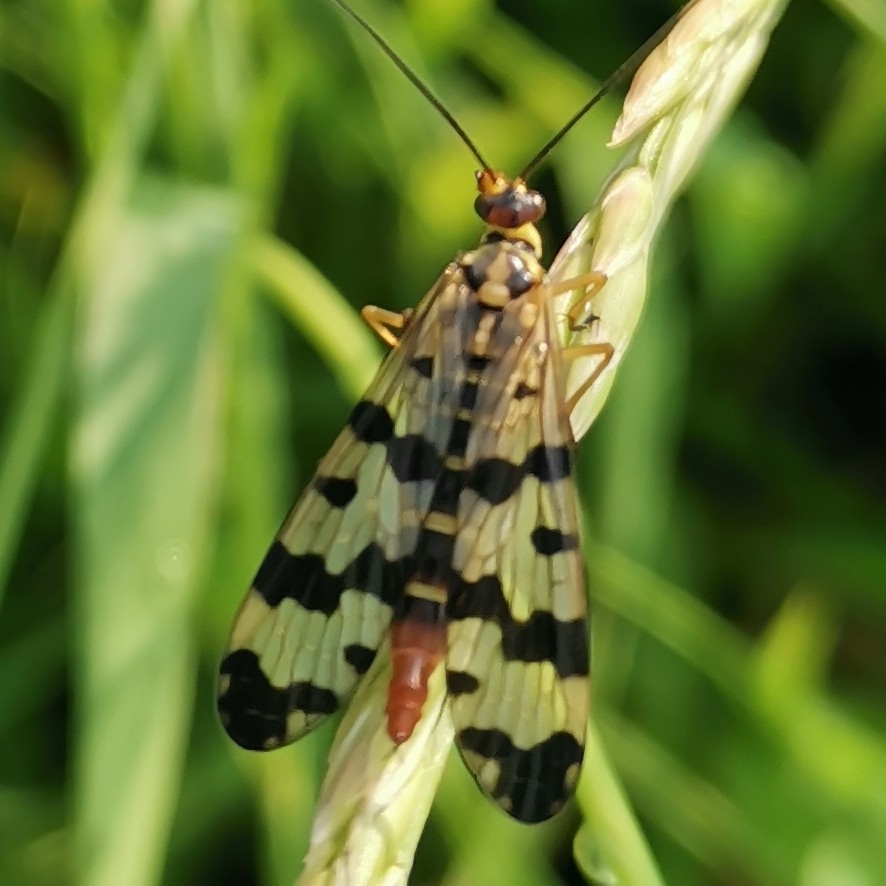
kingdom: Animalia
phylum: Arthropoda
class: Insecta
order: Mecoptera
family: Panorpidae
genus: Panorpa
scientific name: Panorpa communis
